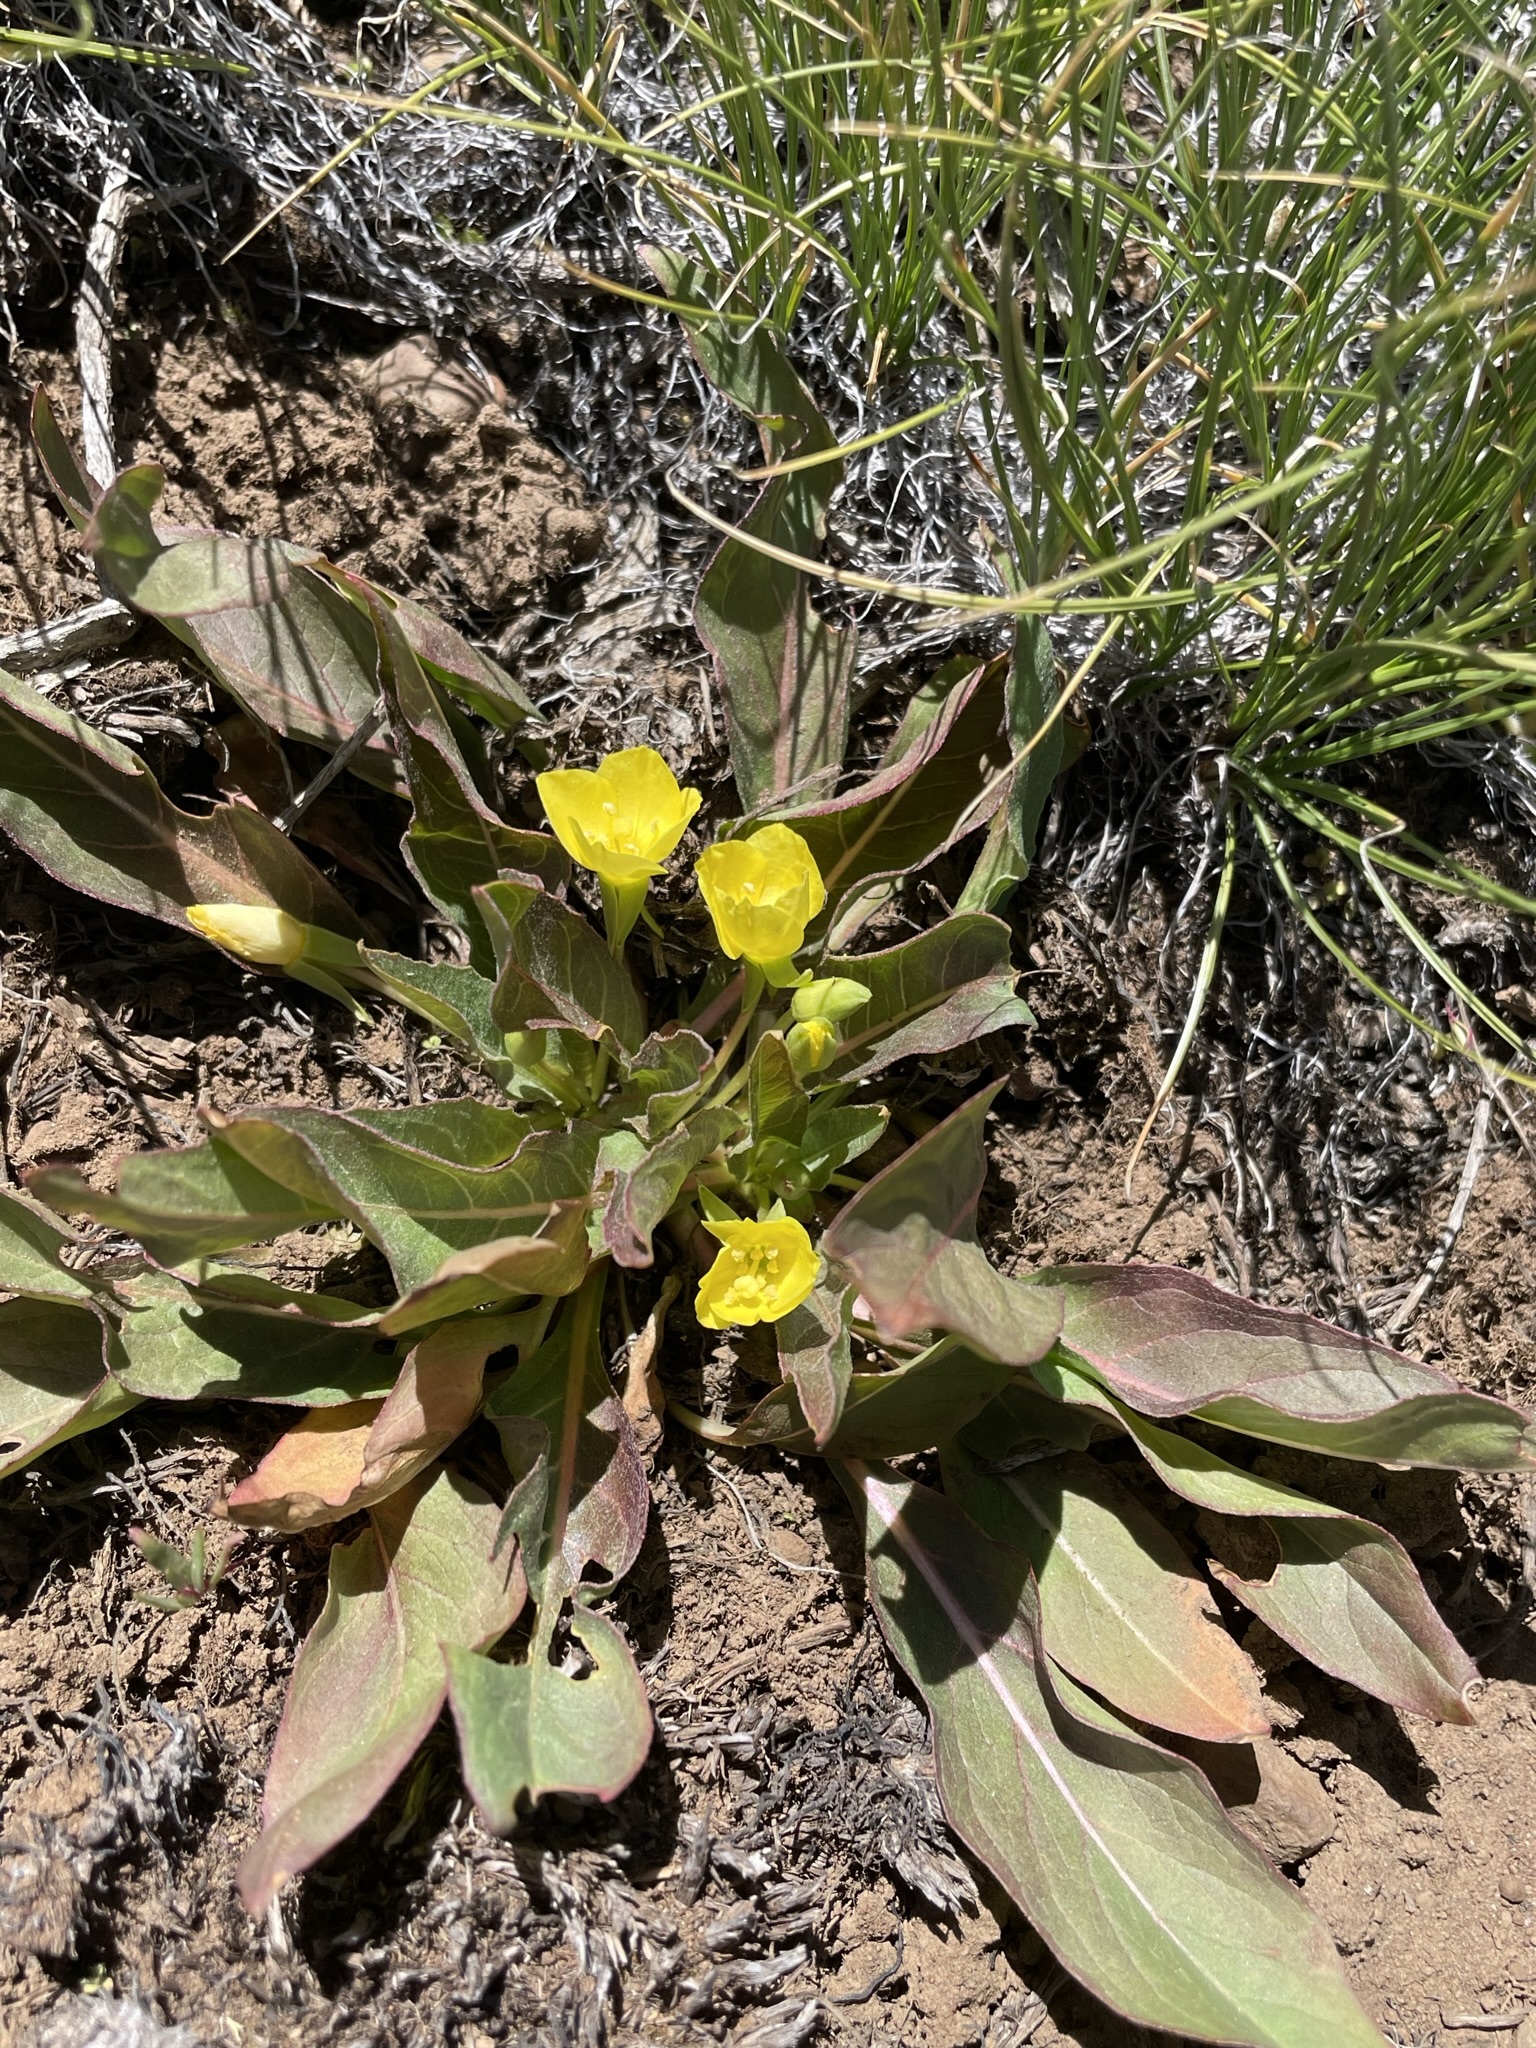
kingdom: Plantae
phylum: Tracheophyta
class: Magnoliopsida
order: Myrtales
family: Onagraceae
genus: Taraxia
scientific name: Taraxia subacaulis
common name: Diffuseflower evening primrose
